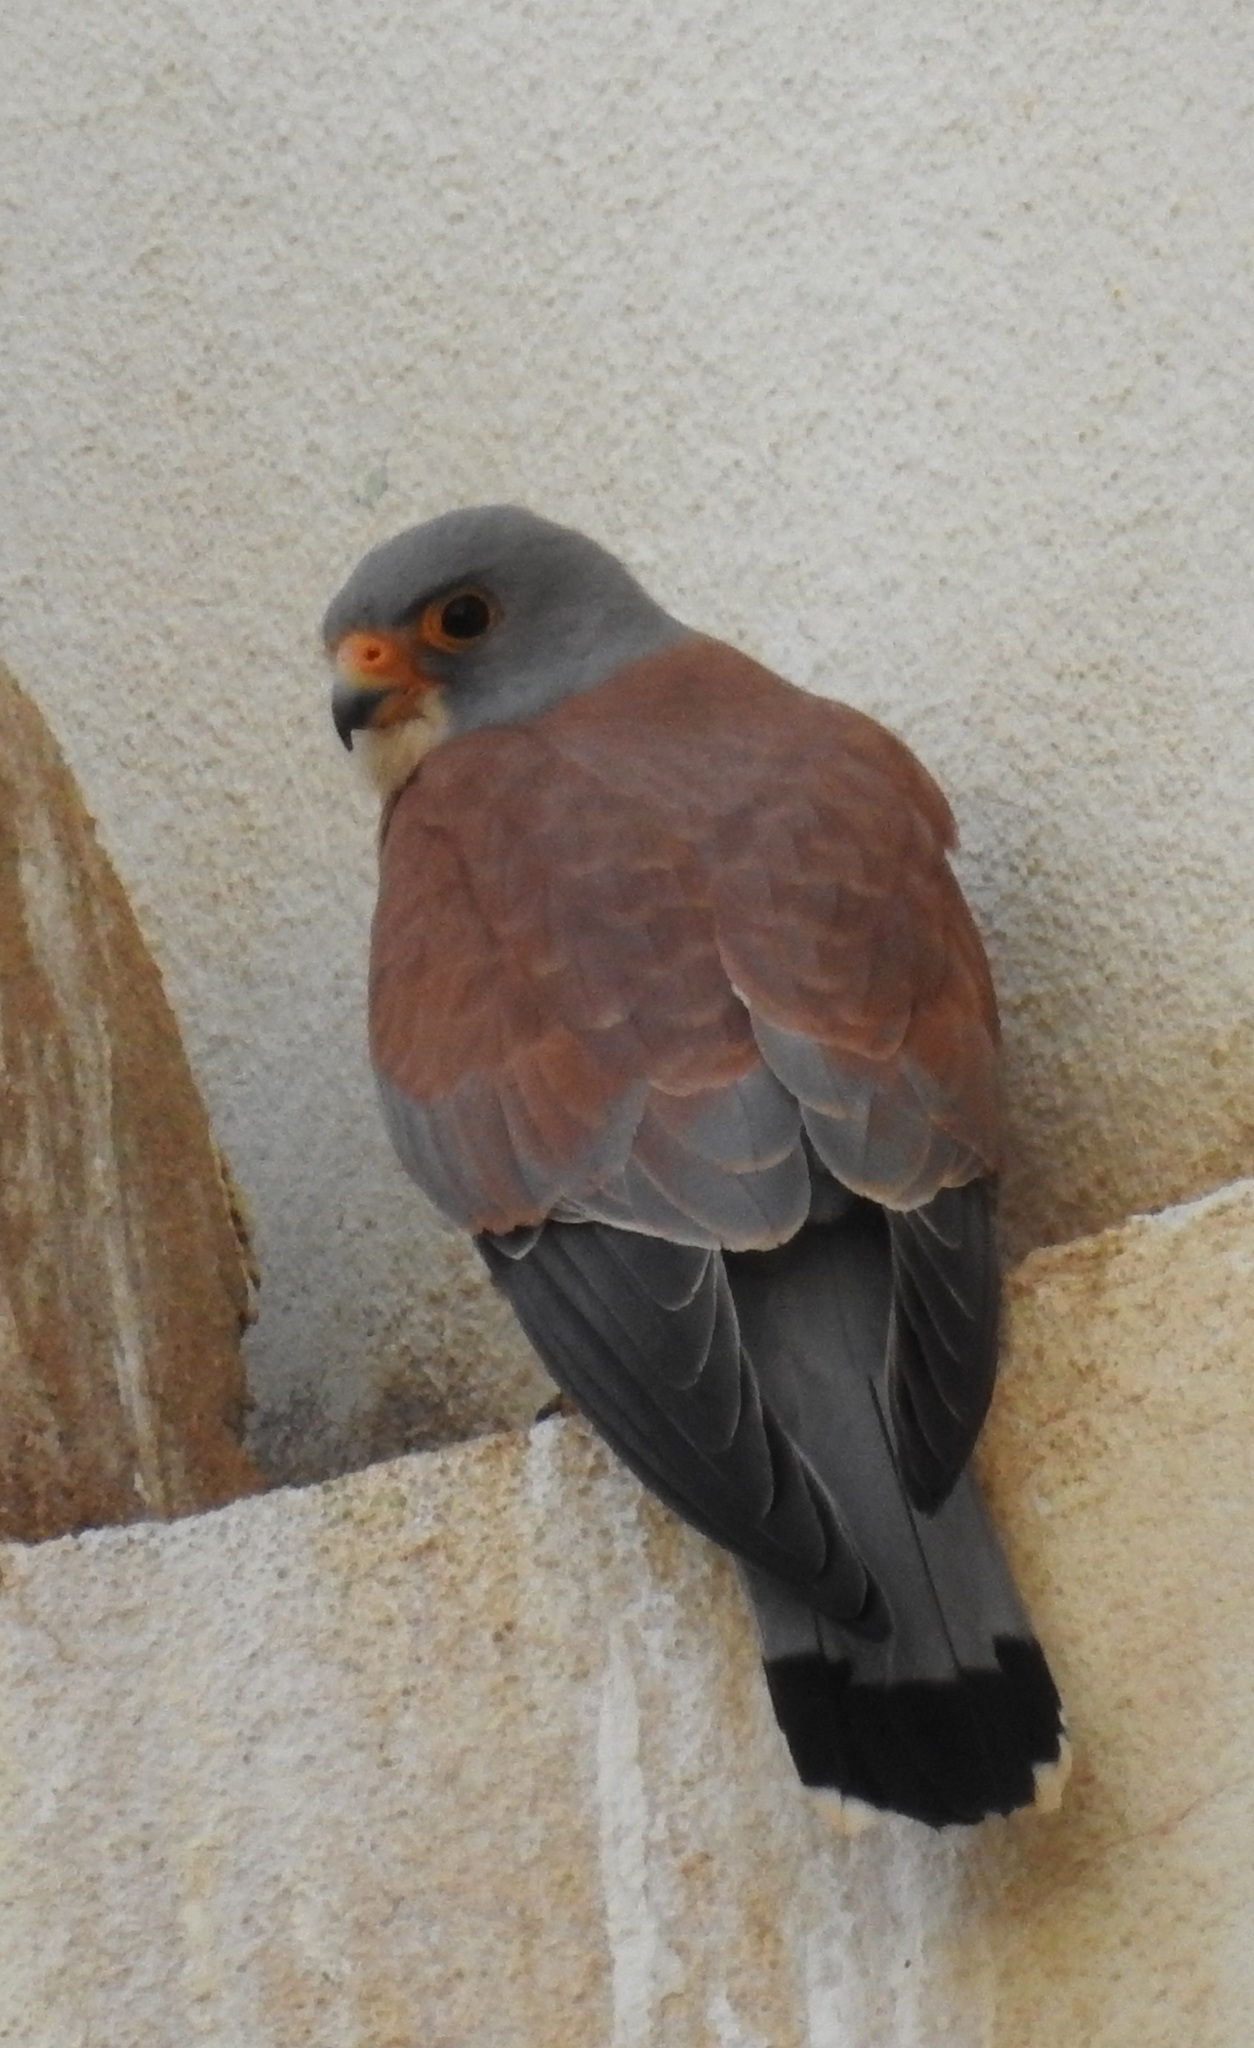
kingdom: Animalia
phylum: Chordata
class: Aves
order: Falconiformes
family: Falconidae
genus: Falco
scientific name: Falco naumanni
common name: Lesser kestrel
